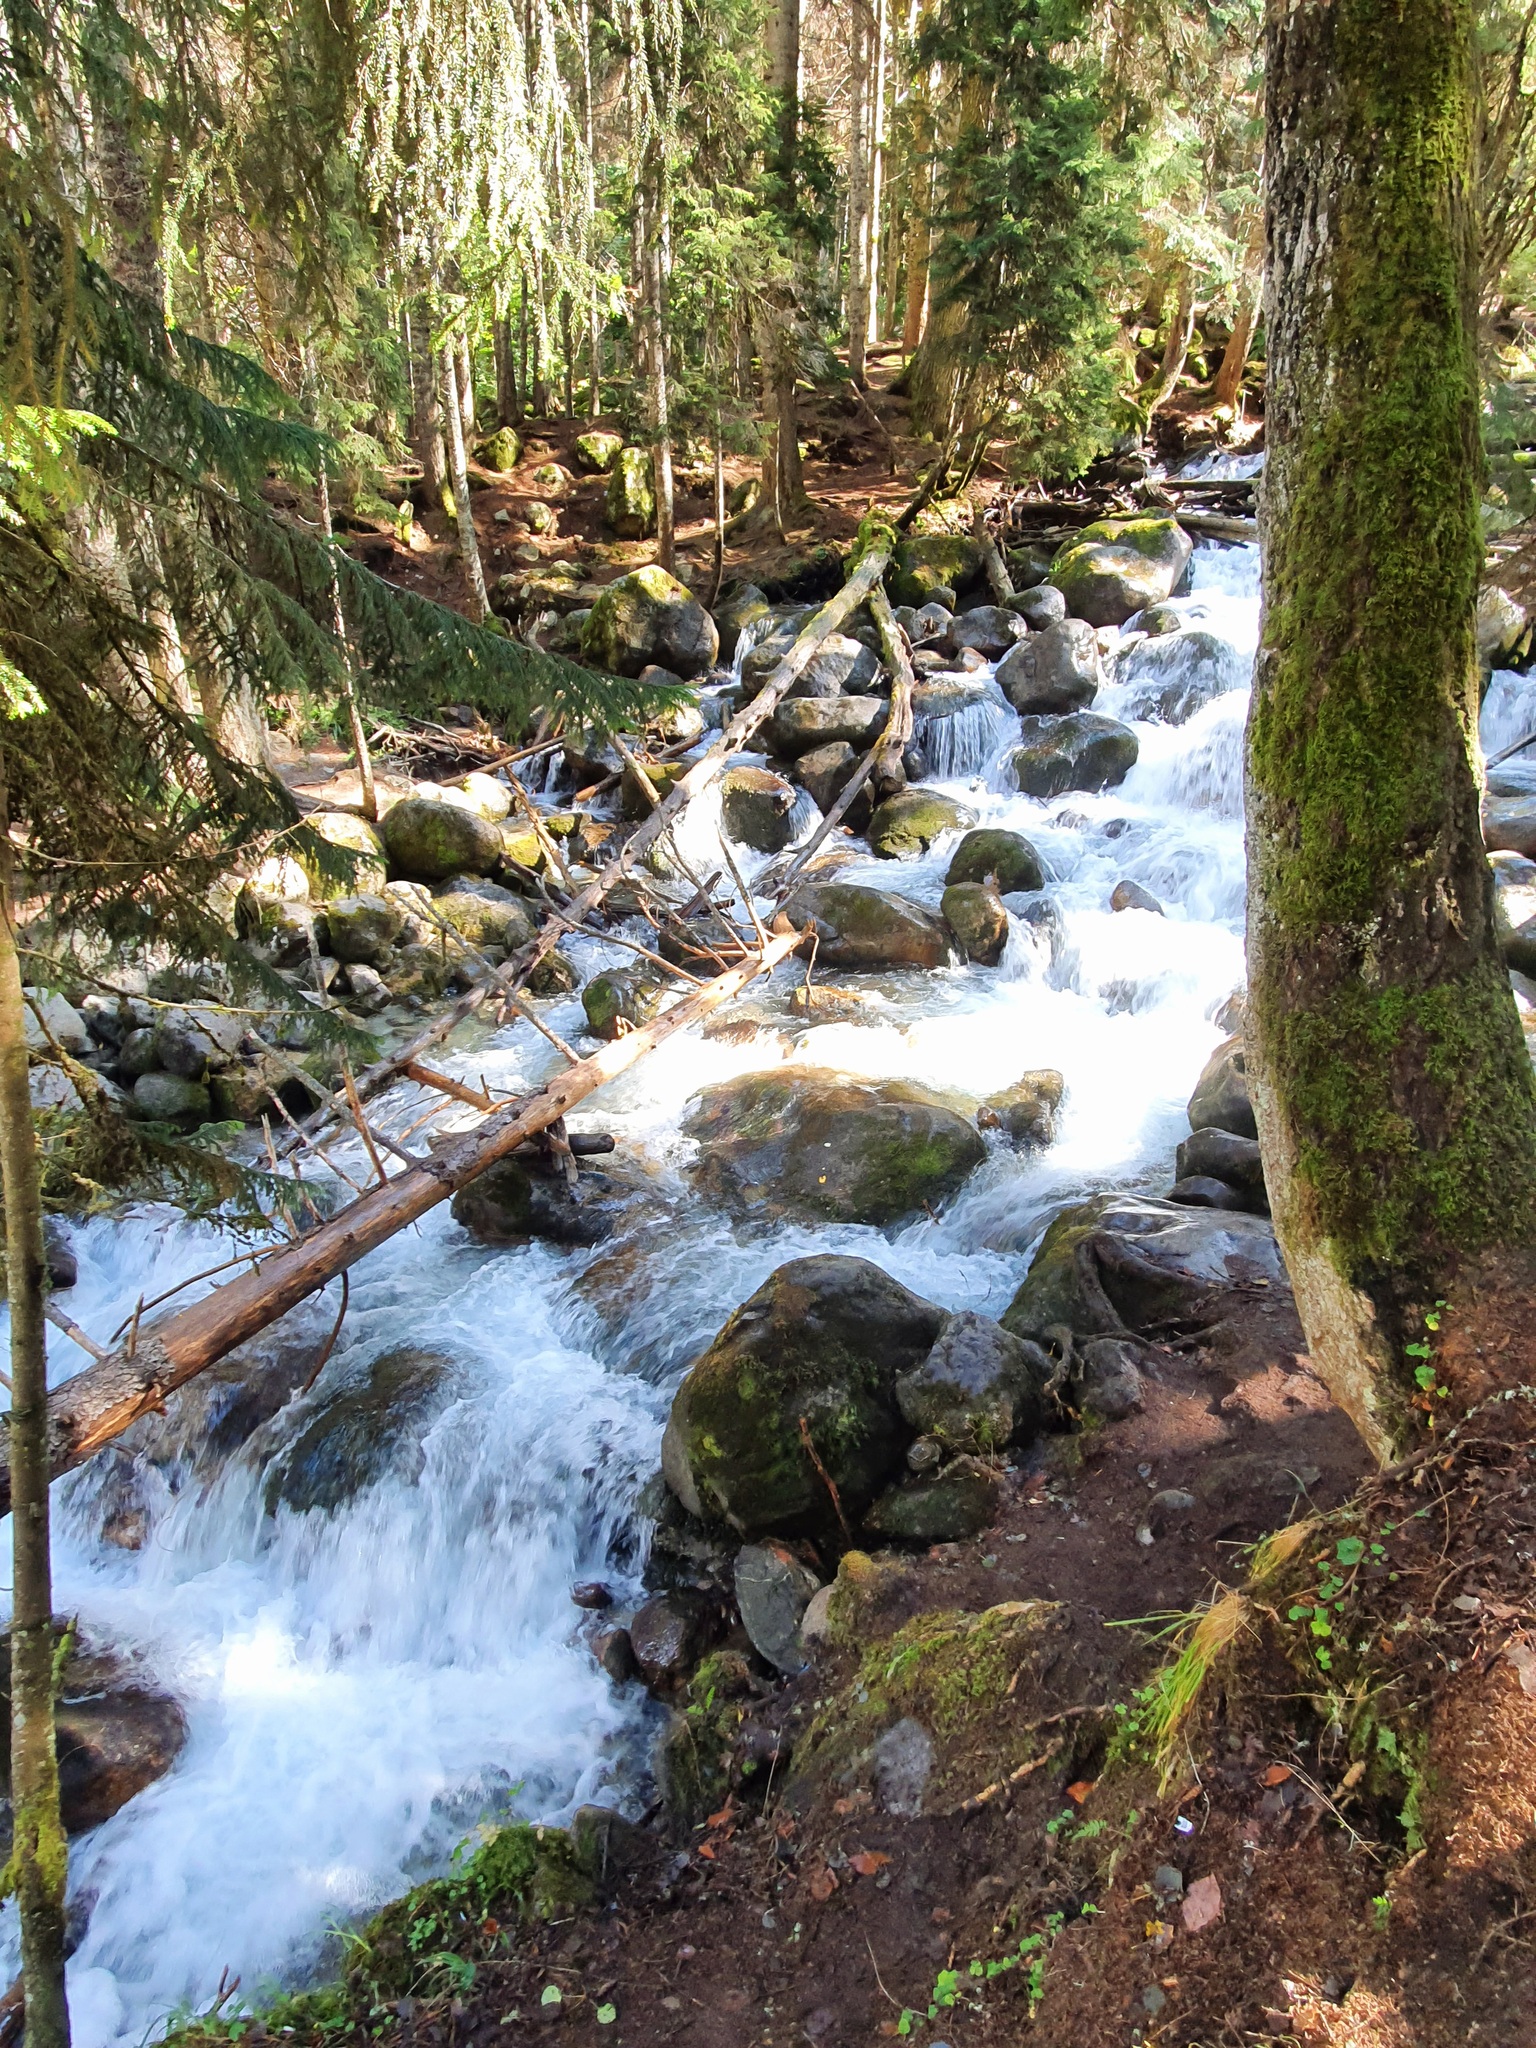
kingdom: Plantae
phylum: Tracheophyta
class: Pinopsida
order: Pinales
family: Pinaceae
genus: Picea
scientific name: Picea orientalis
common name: Oriental spruce
